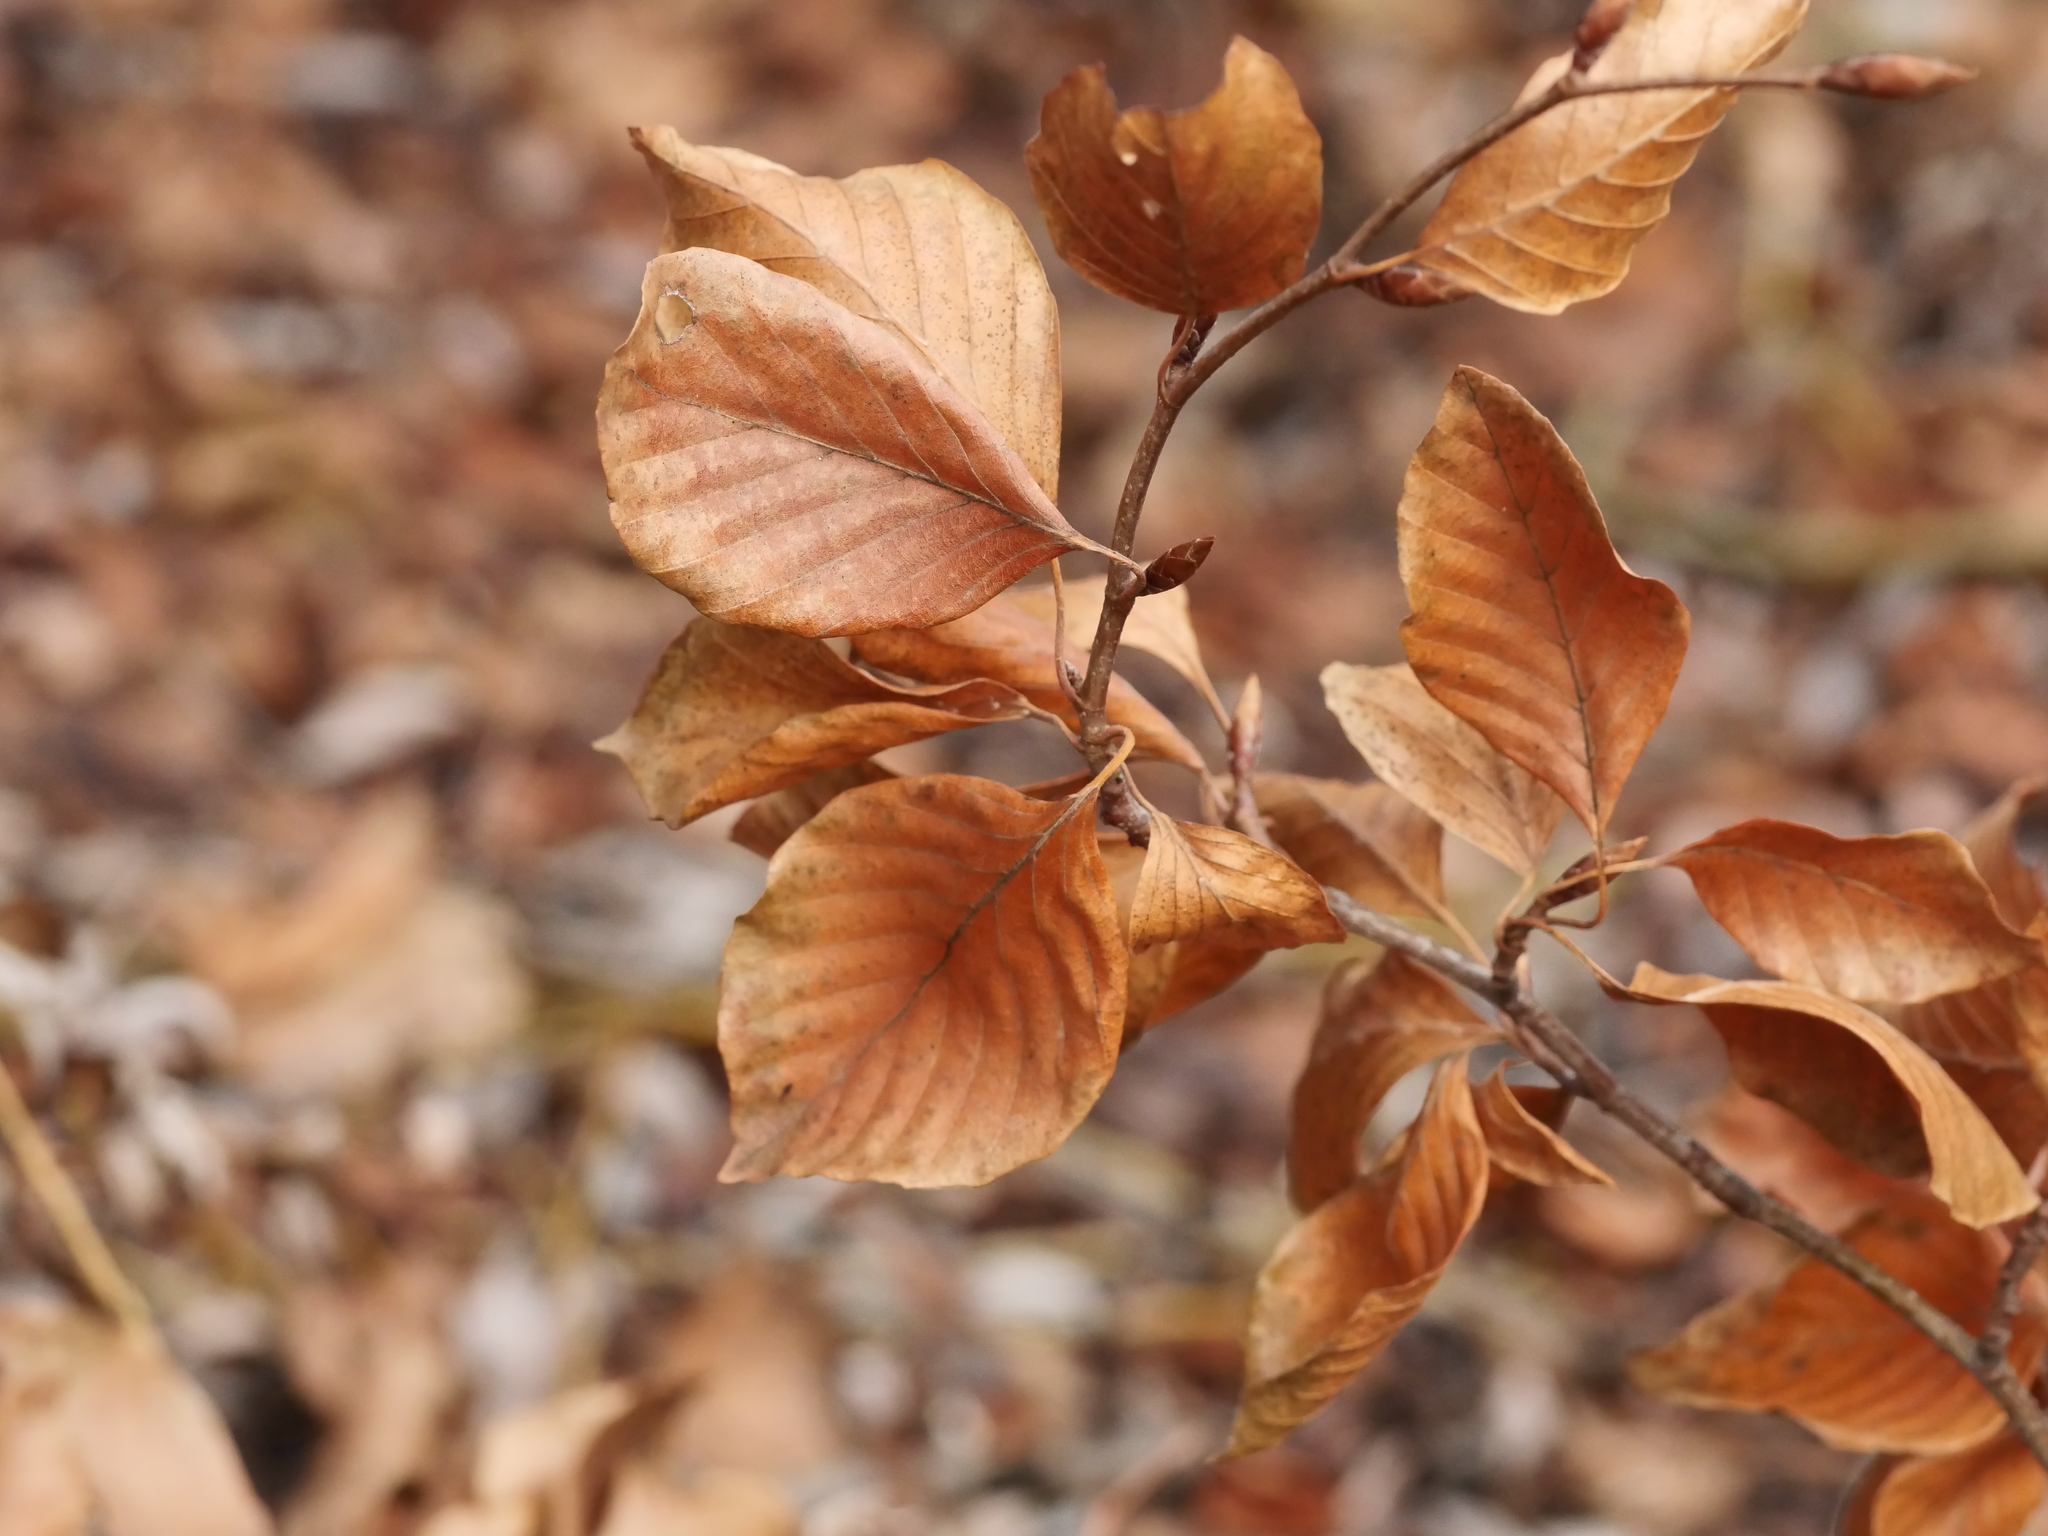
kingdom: Plantae
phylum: Tracheophyta
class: Magnoliopsida
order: Fagales
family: Fagaceae
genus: Fagus
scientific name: Fagus sylvatica
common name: Beech
